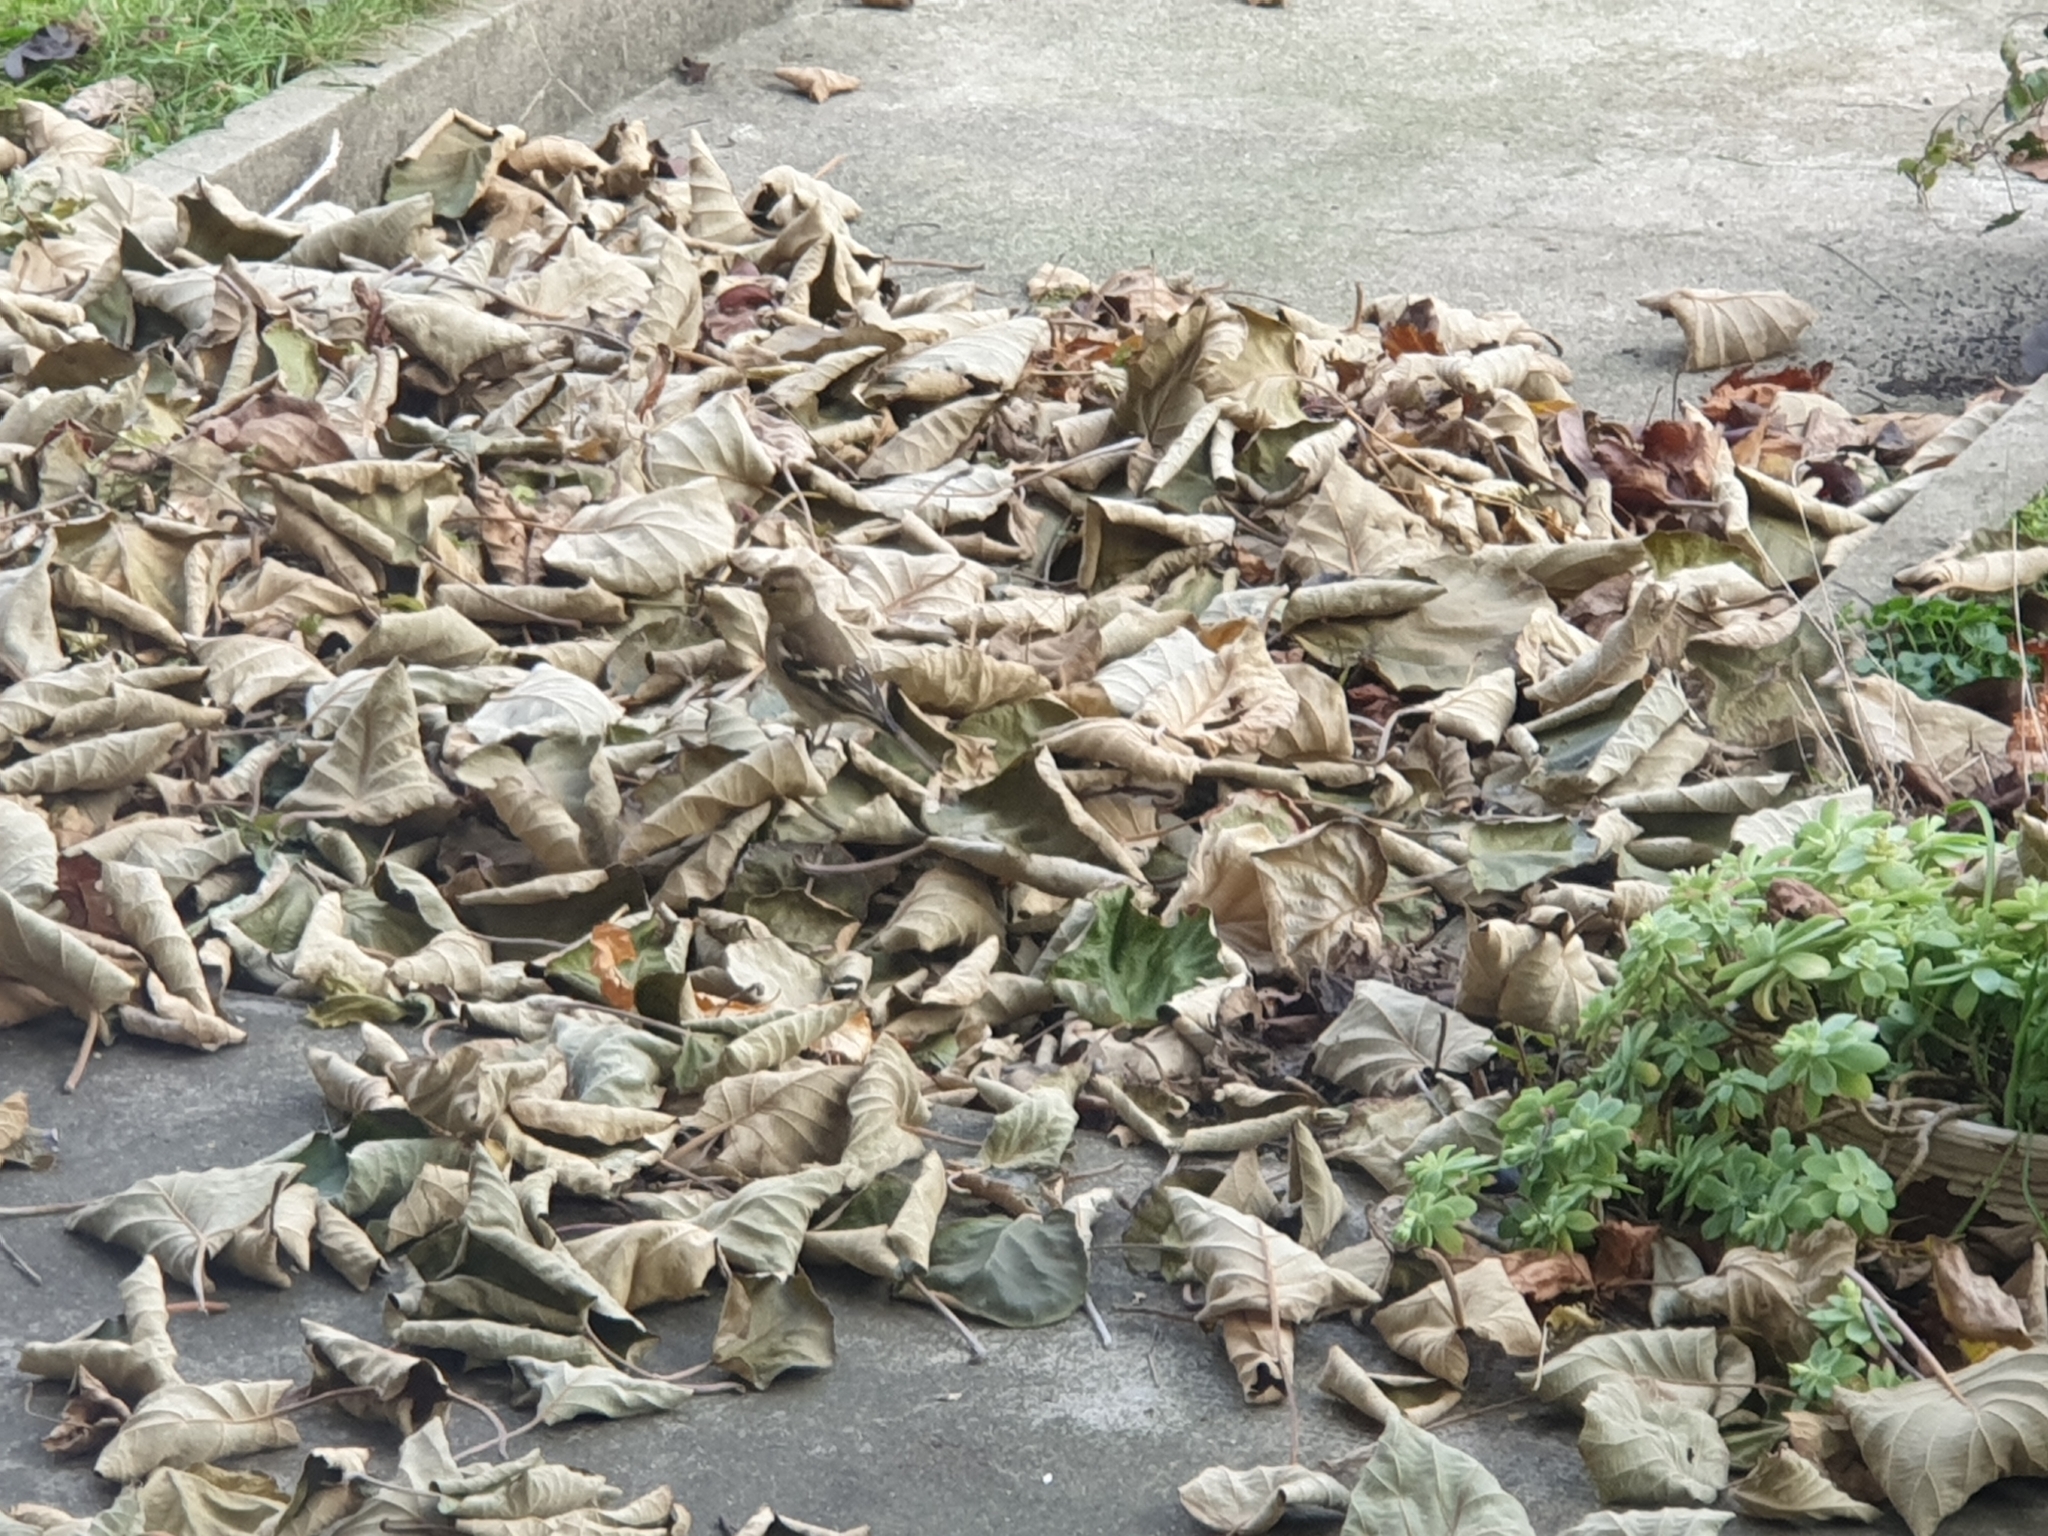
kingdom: Animalia
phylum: Chordata
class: Aves
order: Passeriformes
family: Fringillidae
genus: Fringilla
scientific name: Fringilla coelebs
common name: Common chaffinch
